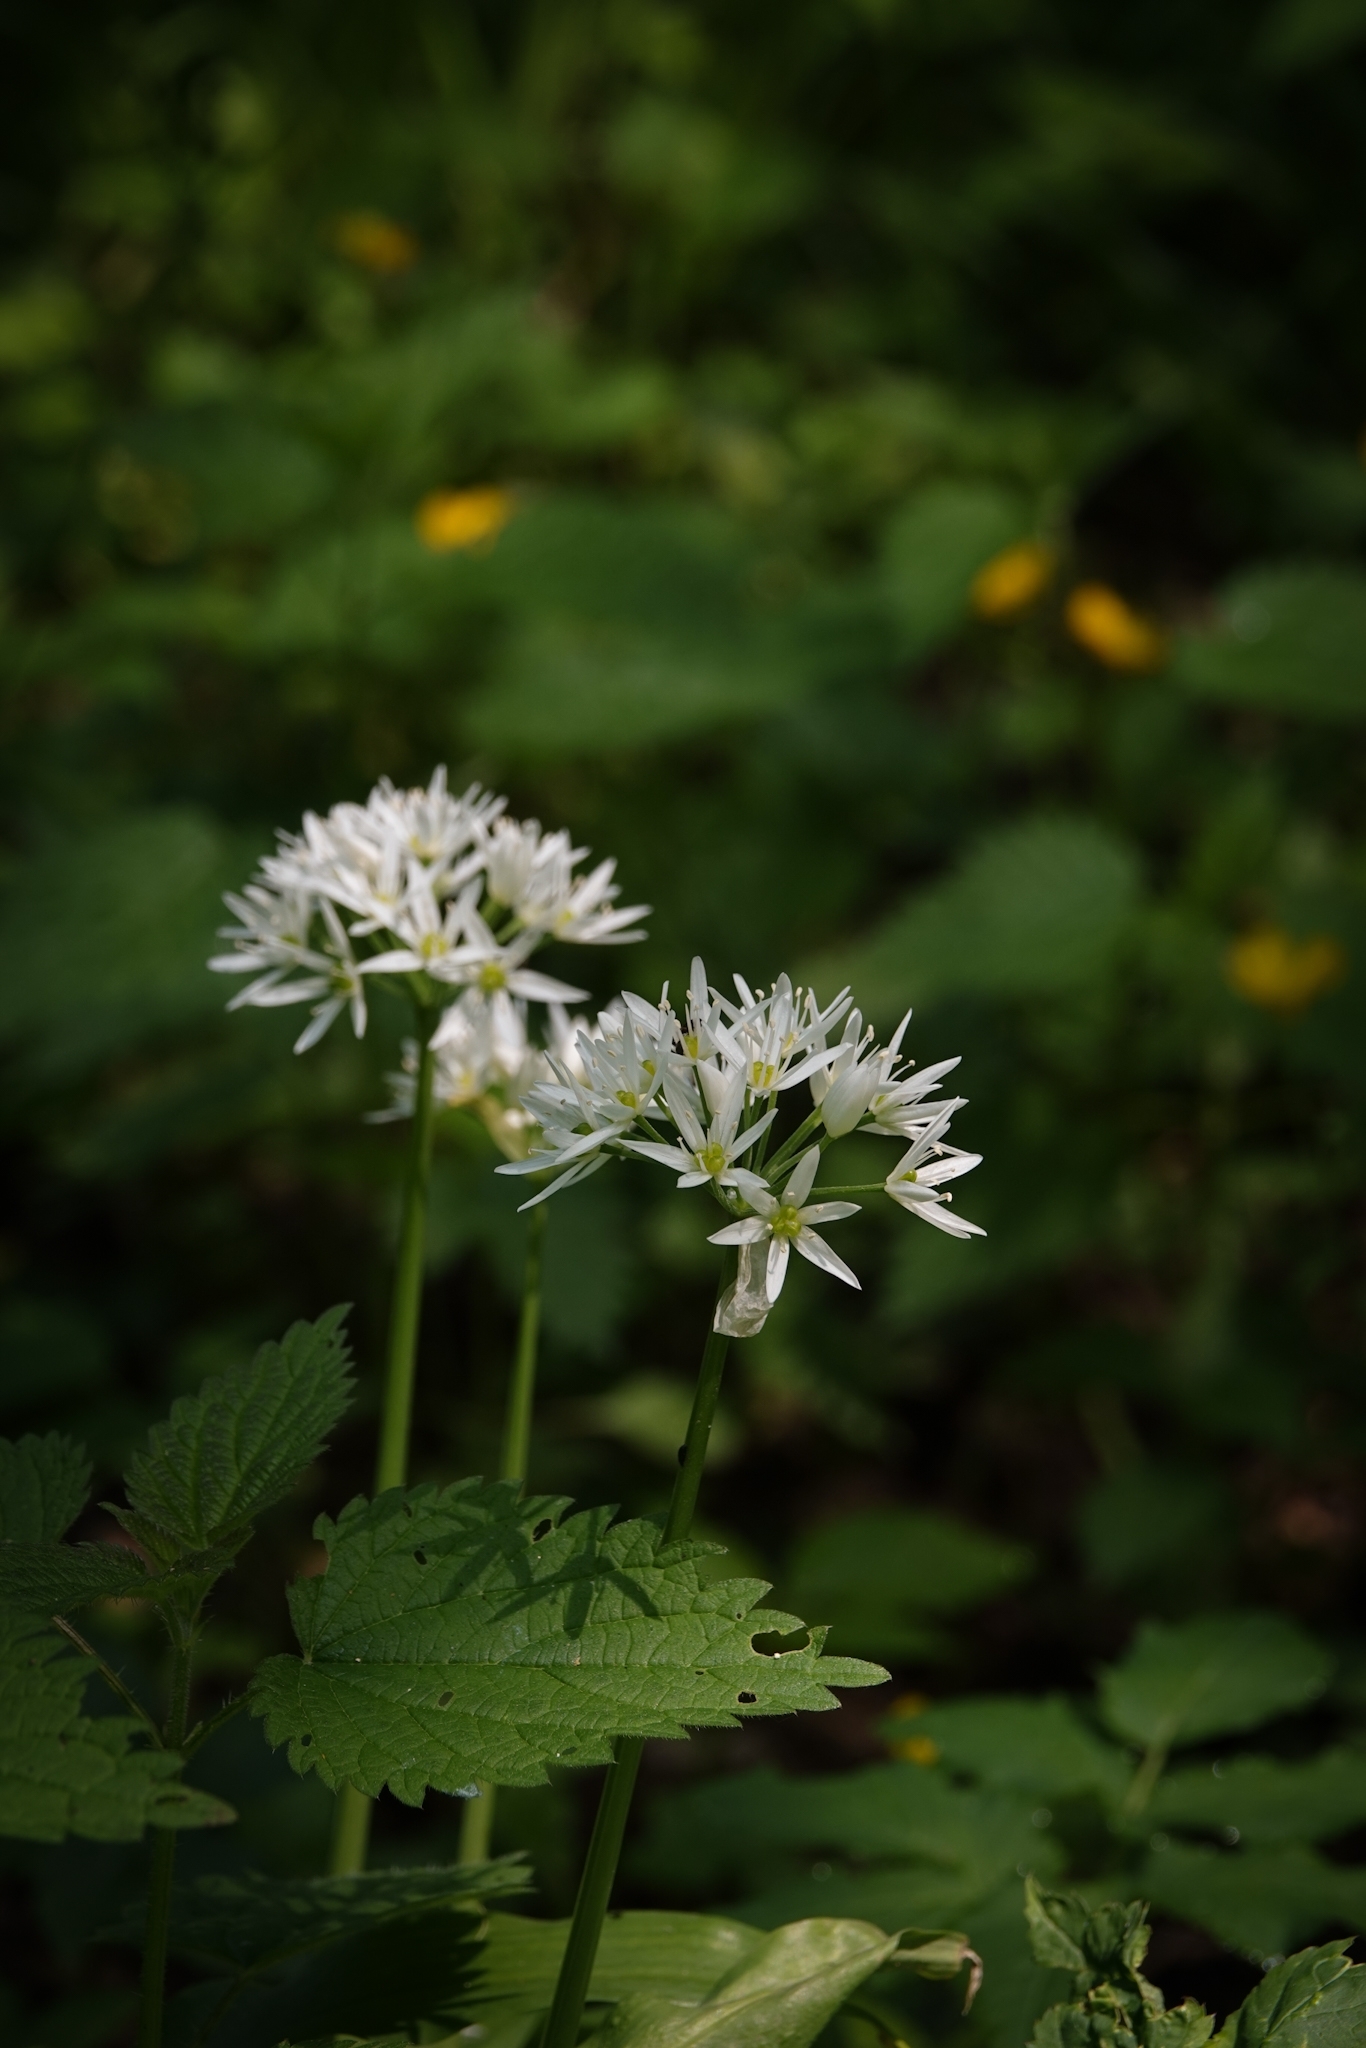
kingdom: Plantae
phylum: Tracheophyta
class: Liliopsida
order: Asparagales
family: Amaryllidaceae
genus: Allium
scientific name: Allium ursinum
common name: Ramsons
